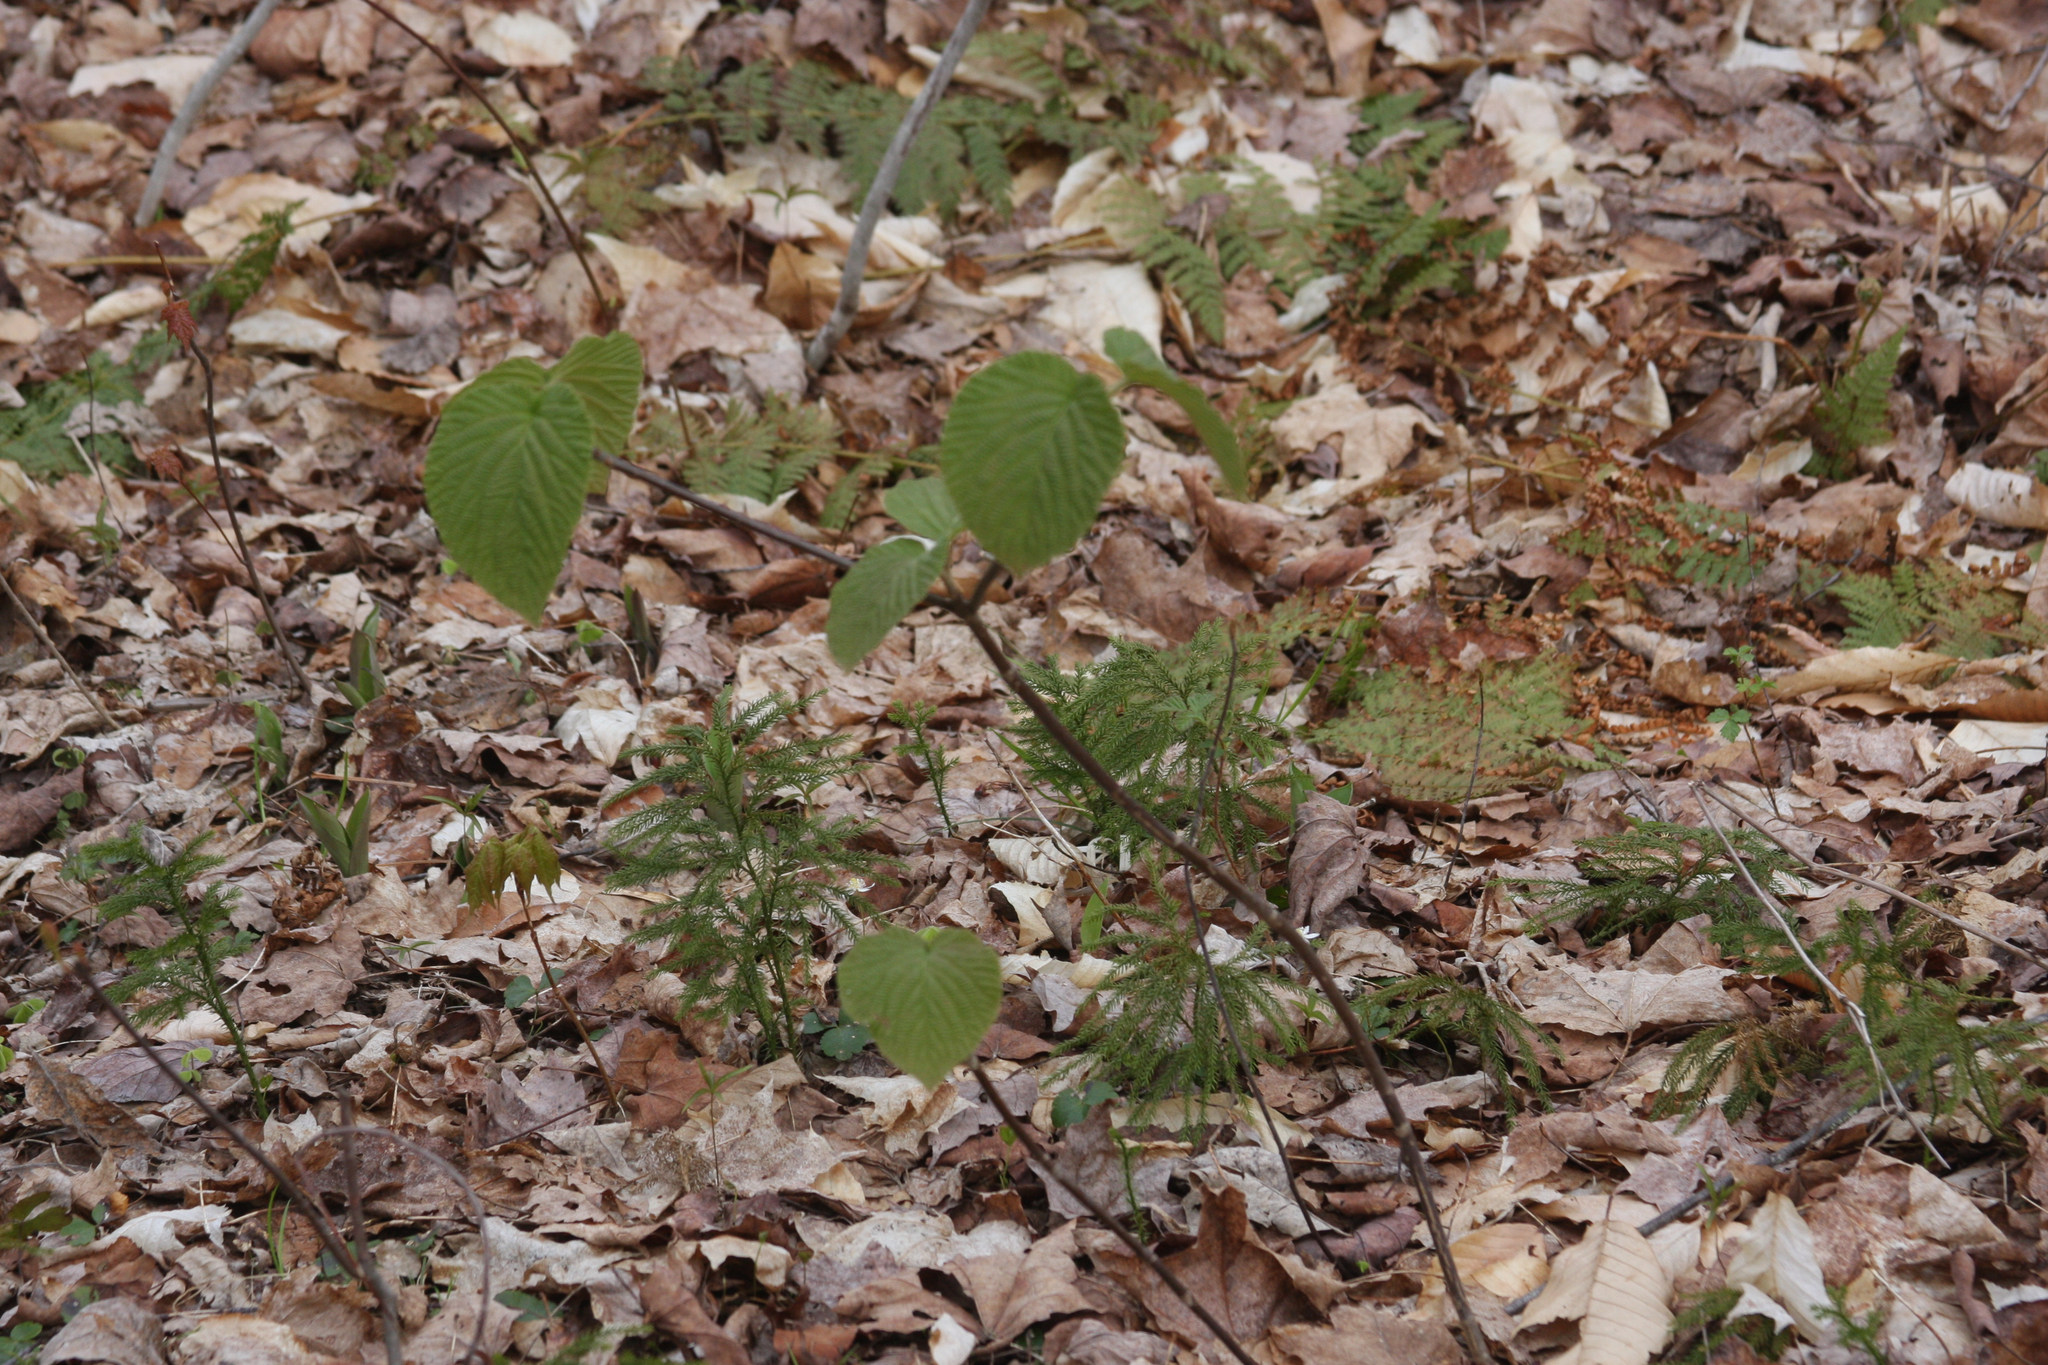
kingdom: Plantae
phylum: Tracheophyta
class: Magnoliopsida
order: Dipsacales
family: Viburnaceae
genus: Viburnum
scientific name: Viburnum lantanoides
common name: Hobblebush
